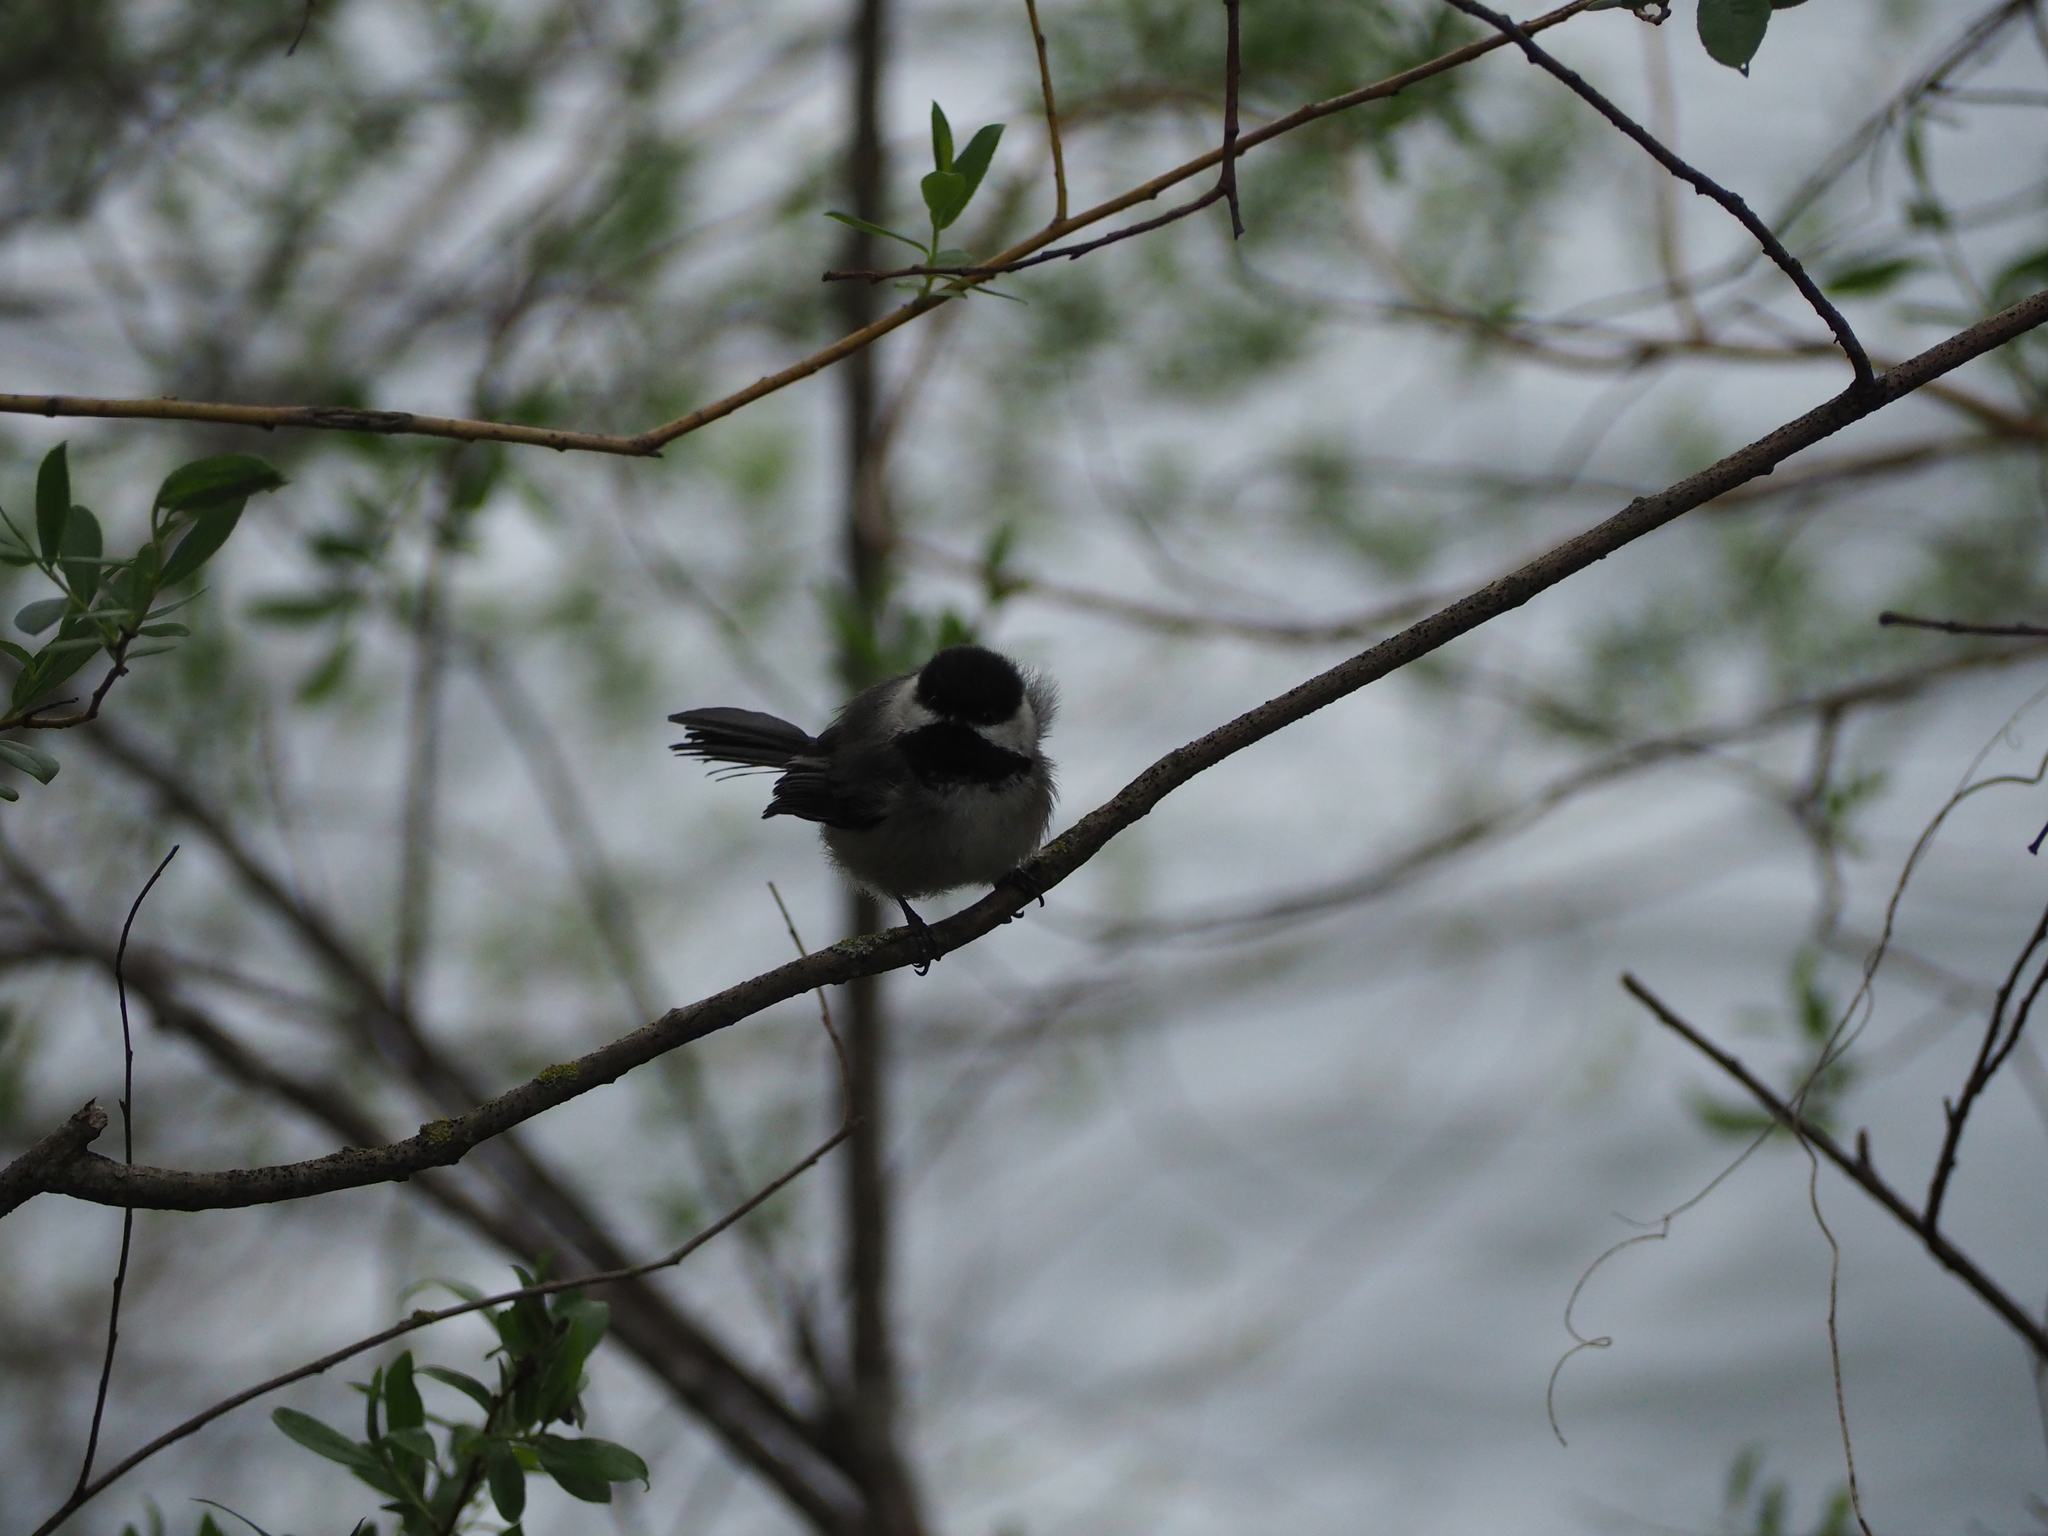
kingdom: Animalia
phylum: Chordata
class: Aves
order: Passeriformes
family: Paridae
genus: Poecile
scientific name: Poecile atricapillus
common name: Black-capped chickadee
